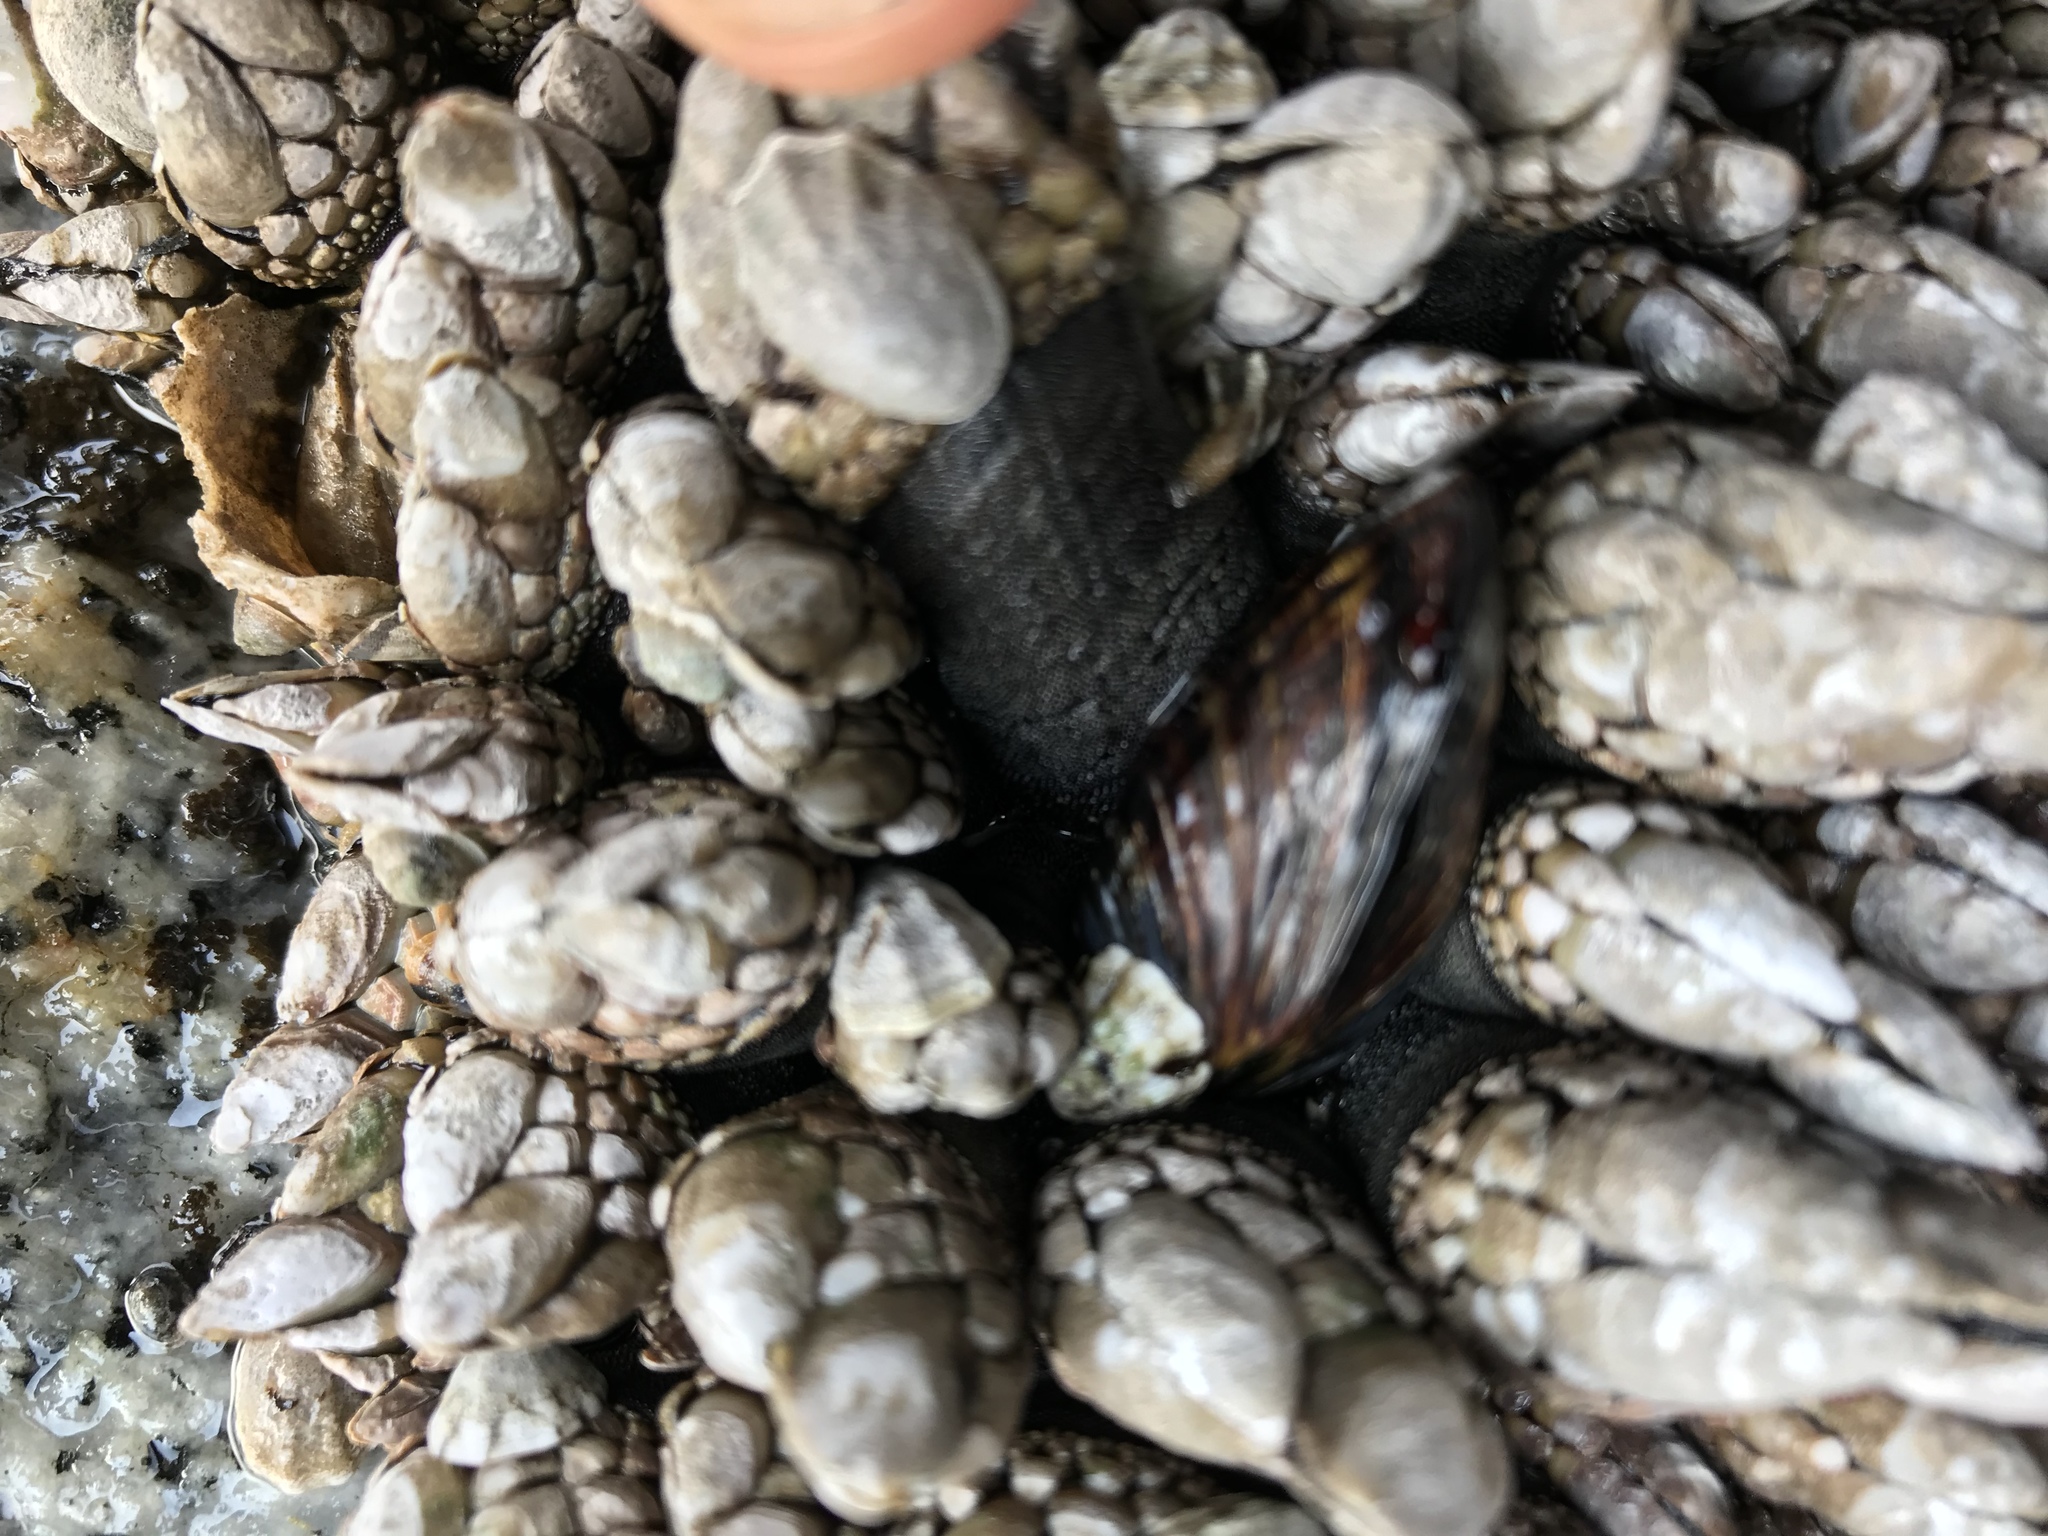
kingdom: Animalia
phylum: Arthropoda
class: Maxillopoda
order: Pedunculata
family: Pollicipedidae
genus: Pollicipes
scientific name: Pollicipes polymerus
